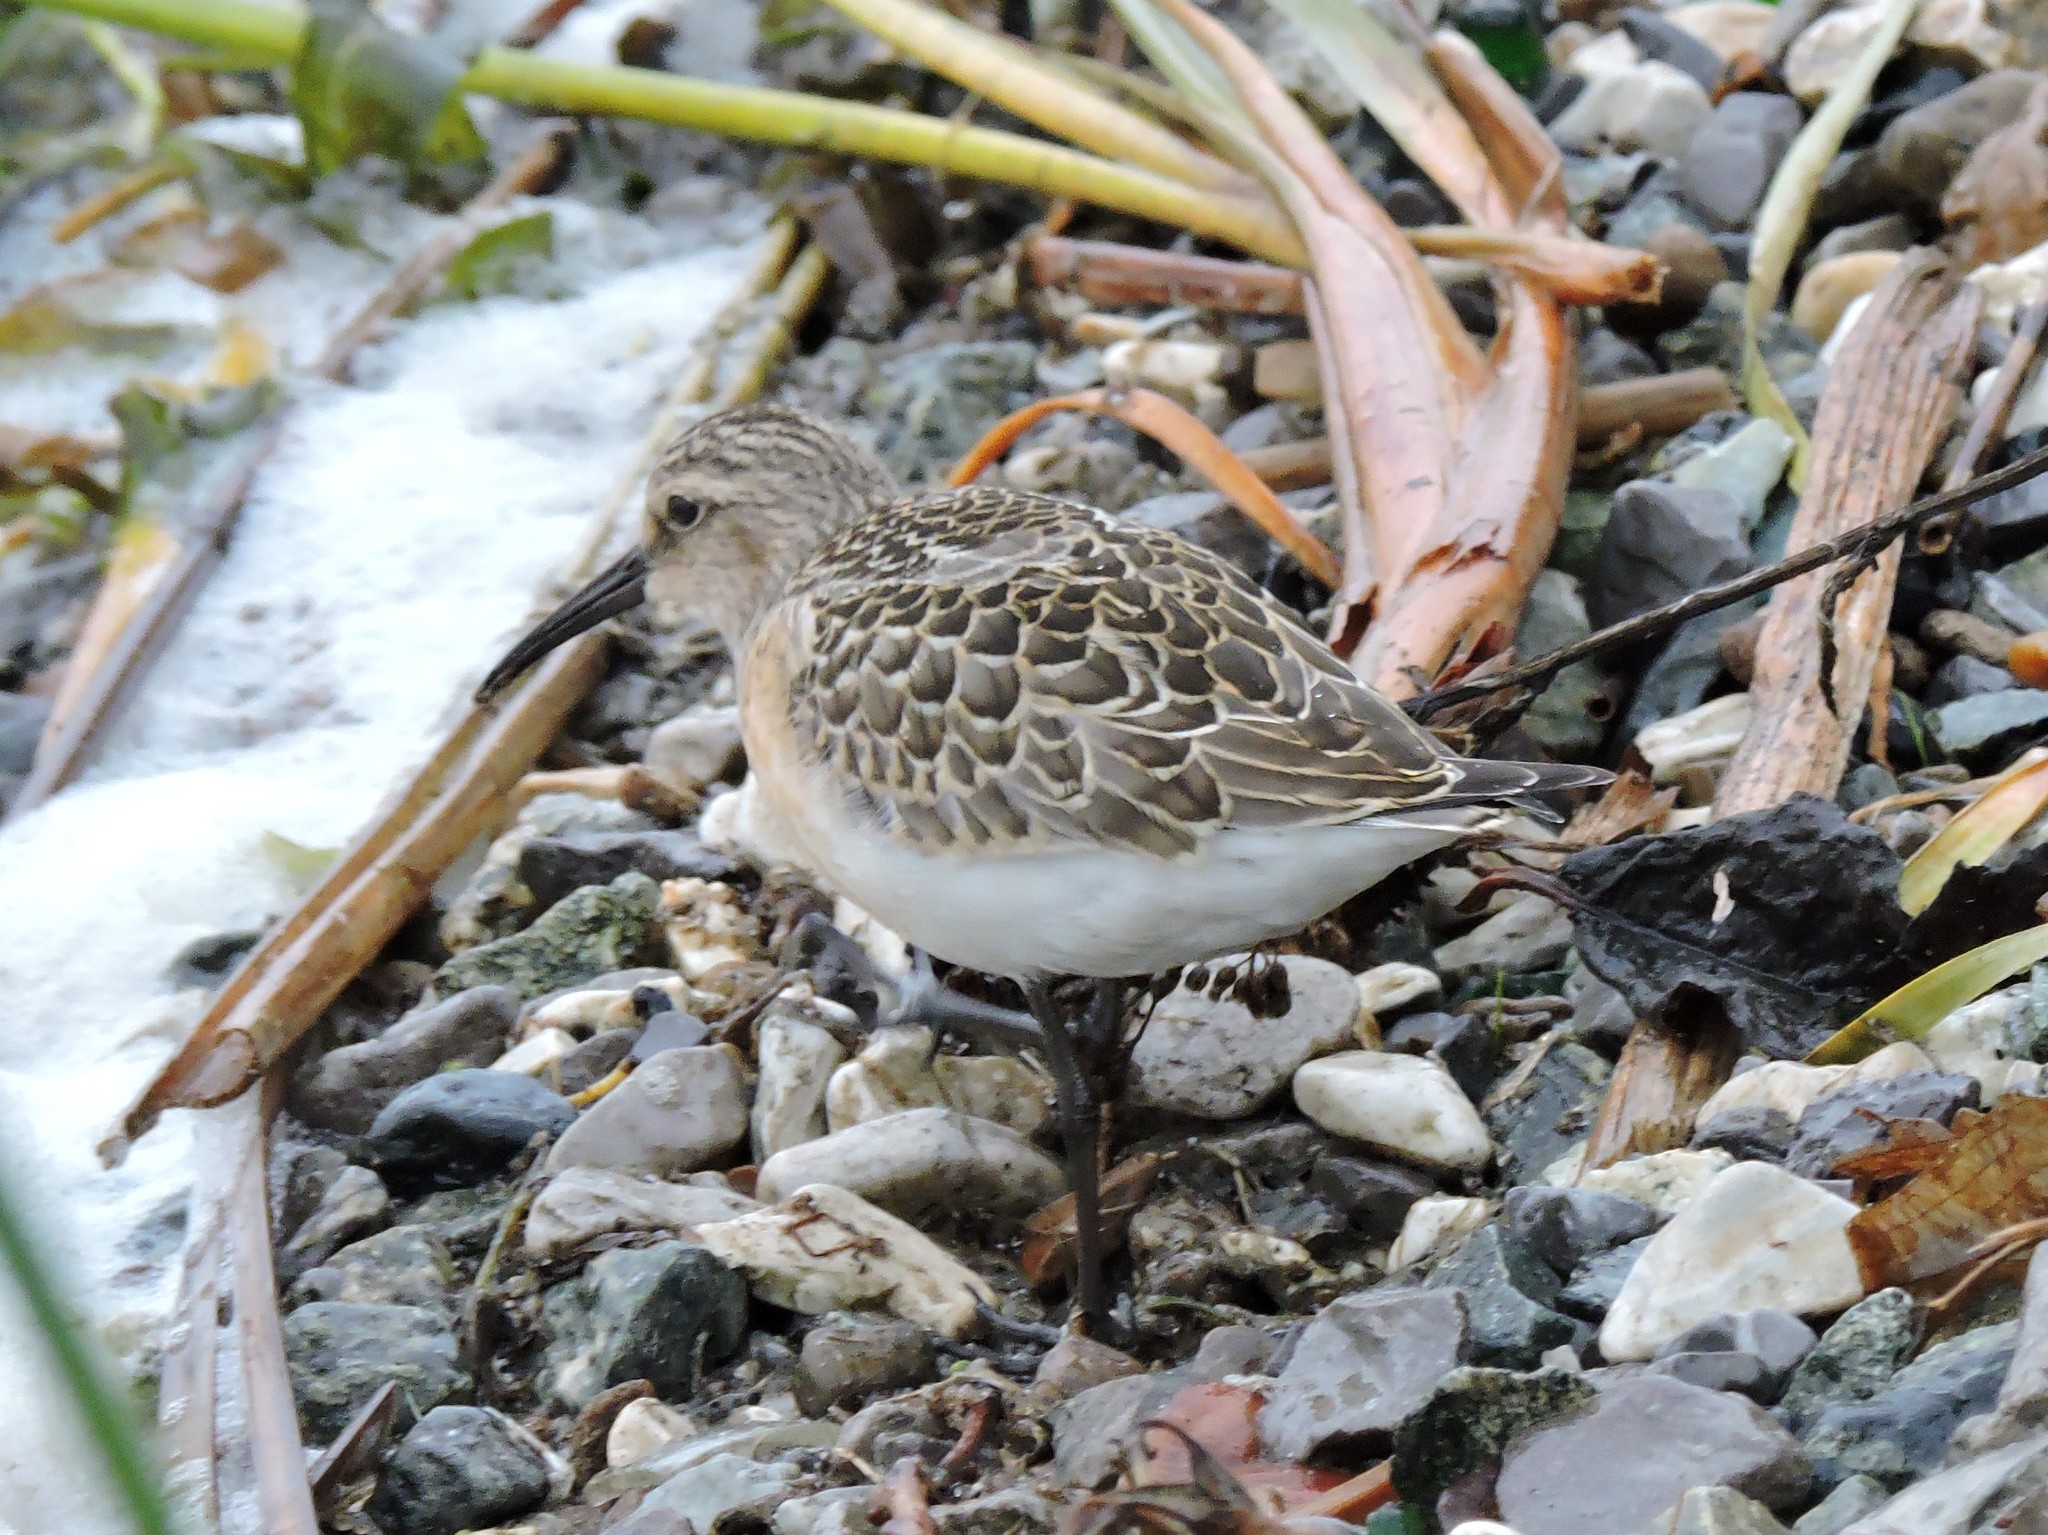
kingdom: Animalia
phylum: Chordata
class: Aves
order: Charadriiformes
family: Scolopacidae
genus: Calidris
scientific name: Calidris ferruginea
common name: Curlew sandpiper
